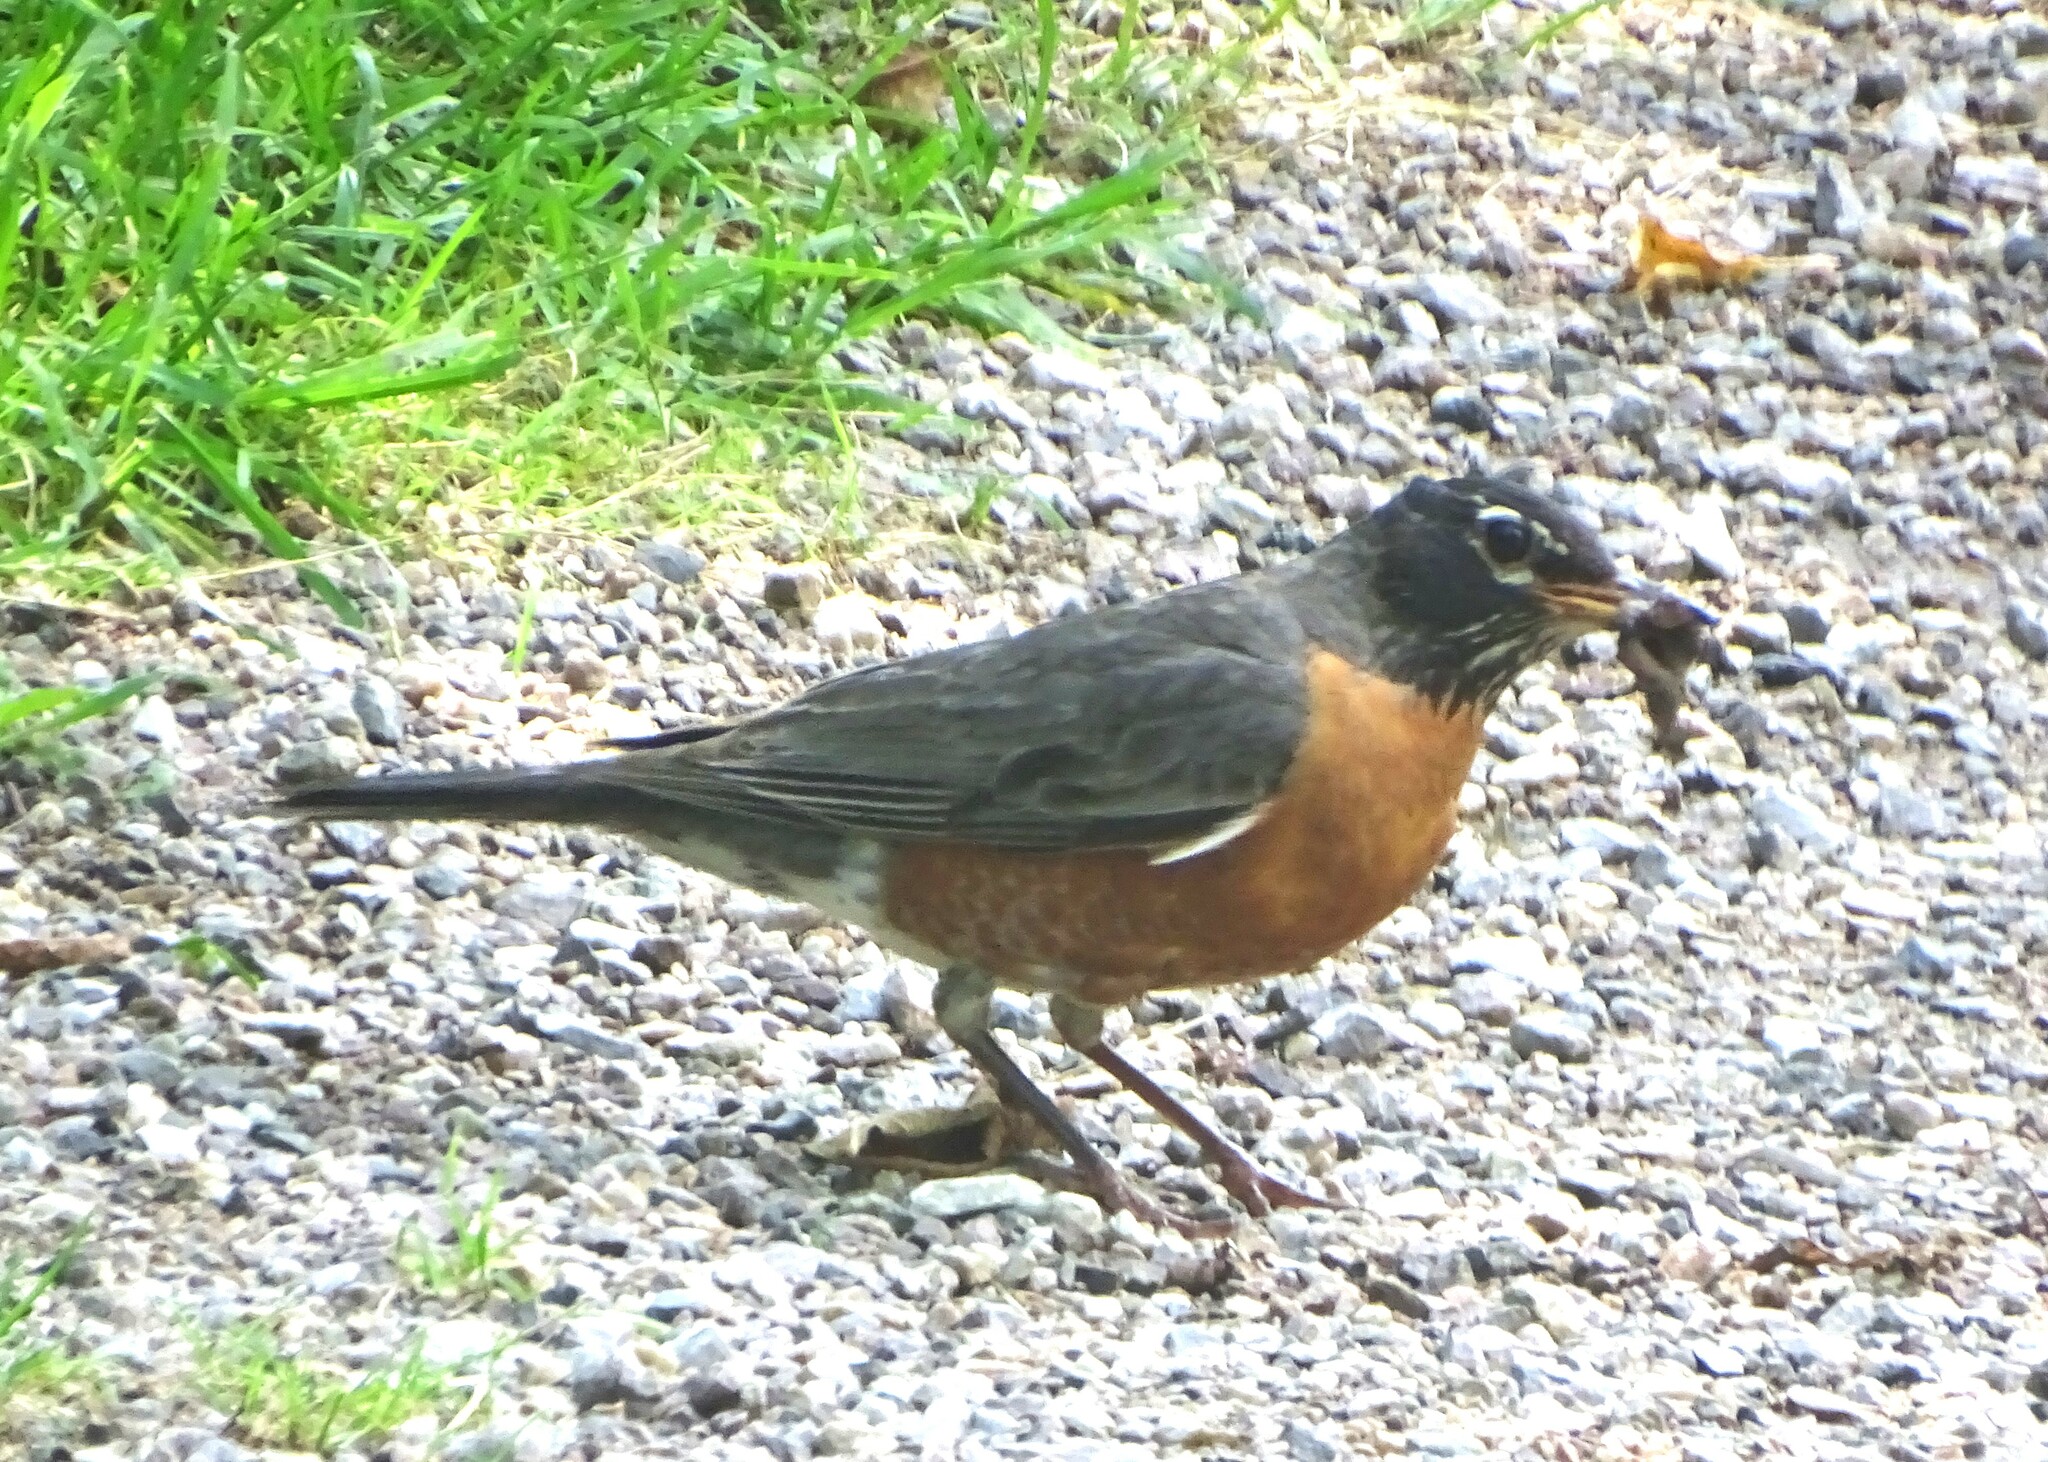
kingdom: Animalia
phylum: Chordata
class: Aves
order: Passeriformes
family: Turdidae
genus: Turdus
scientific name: Turdus migratorius
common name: American robin
